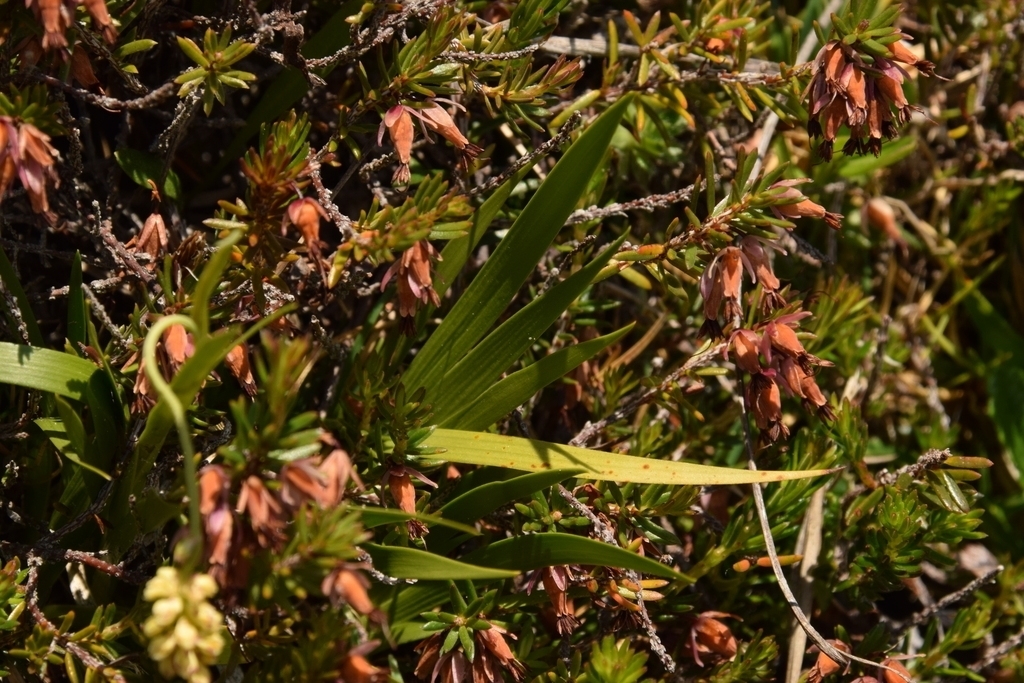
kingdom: Plantae
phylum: Tracheophyta
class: Liliopsida
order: Alismatales
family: Tofieldiaceae
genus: Tofieldia
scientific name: Tofieldia calyculata
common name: German-asphodel
